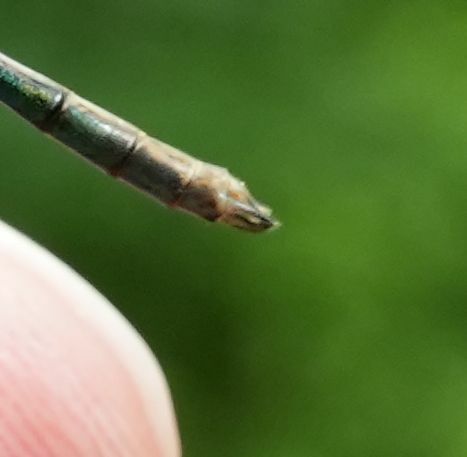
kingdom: Animalia
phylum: Arthropoda
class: Insecta
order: Odonata
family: Lestidae
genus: Lestes
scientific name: Lestes dryas
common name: Scarce emerald damselfly
